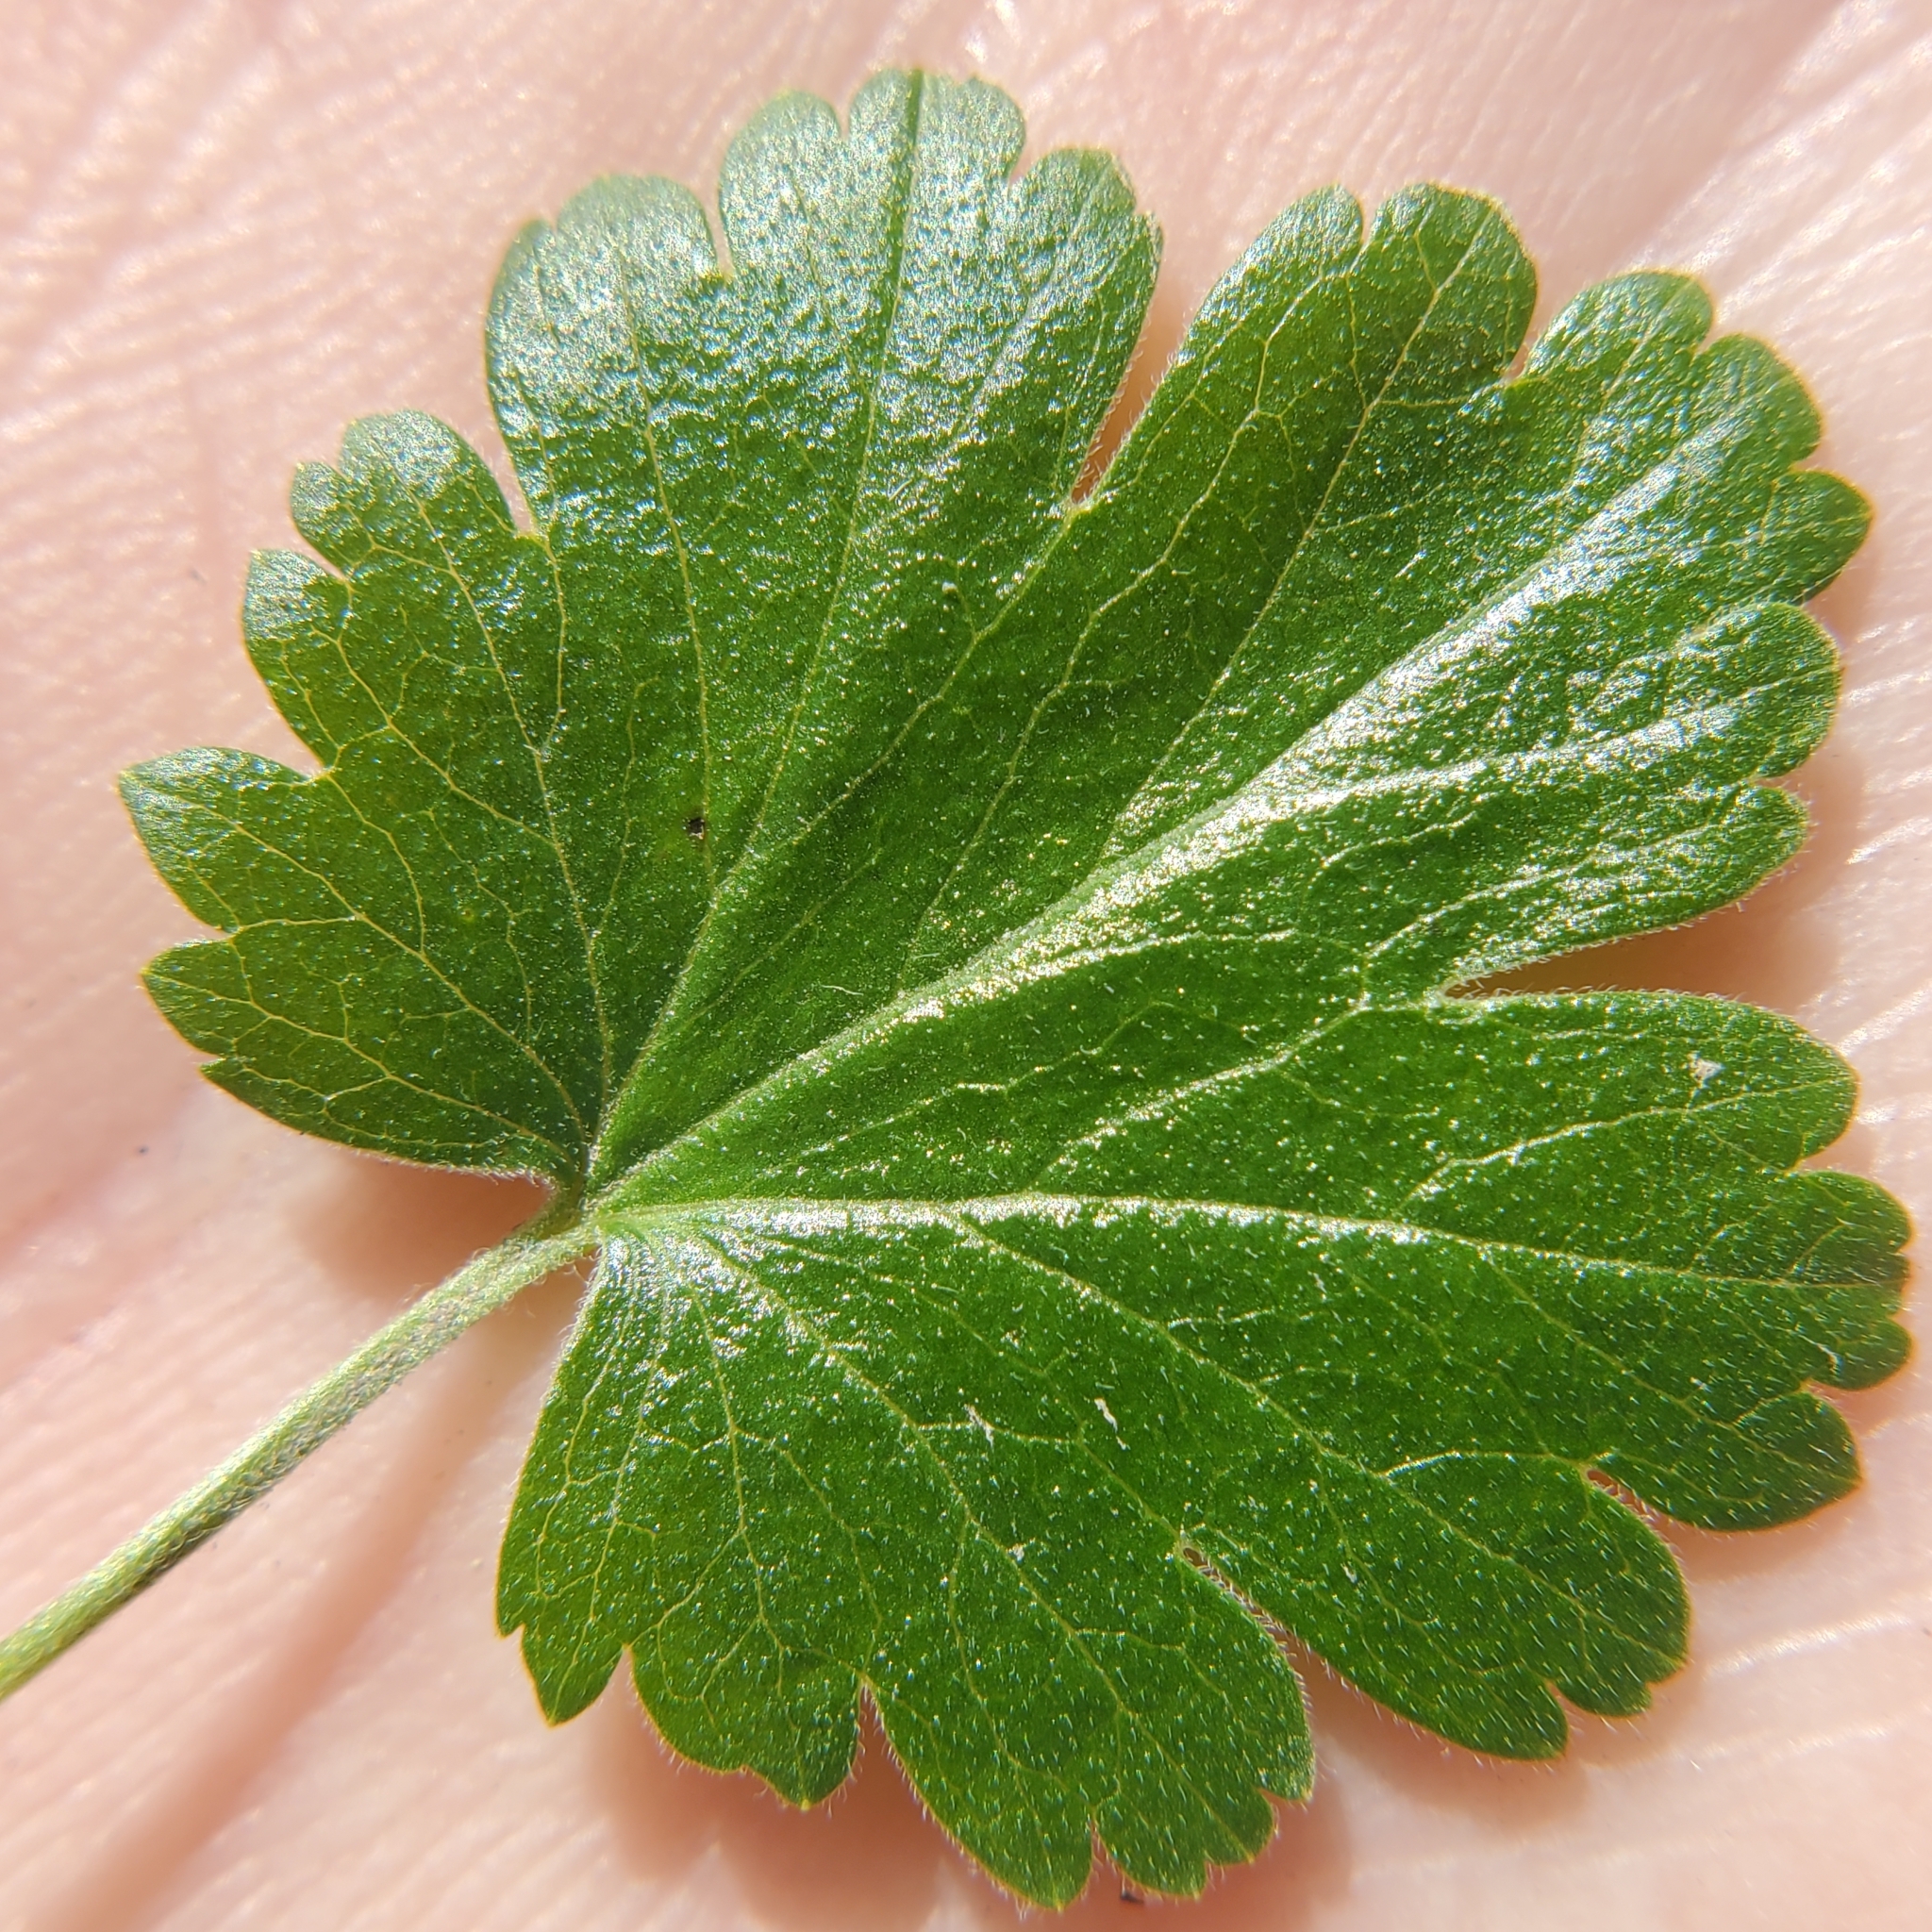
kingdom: Plantae
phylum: Tracheophyta
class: Magnoliopsida
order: Saxifragales
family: Grossulariaceae
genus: Ribes
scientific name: Ribes californicum
